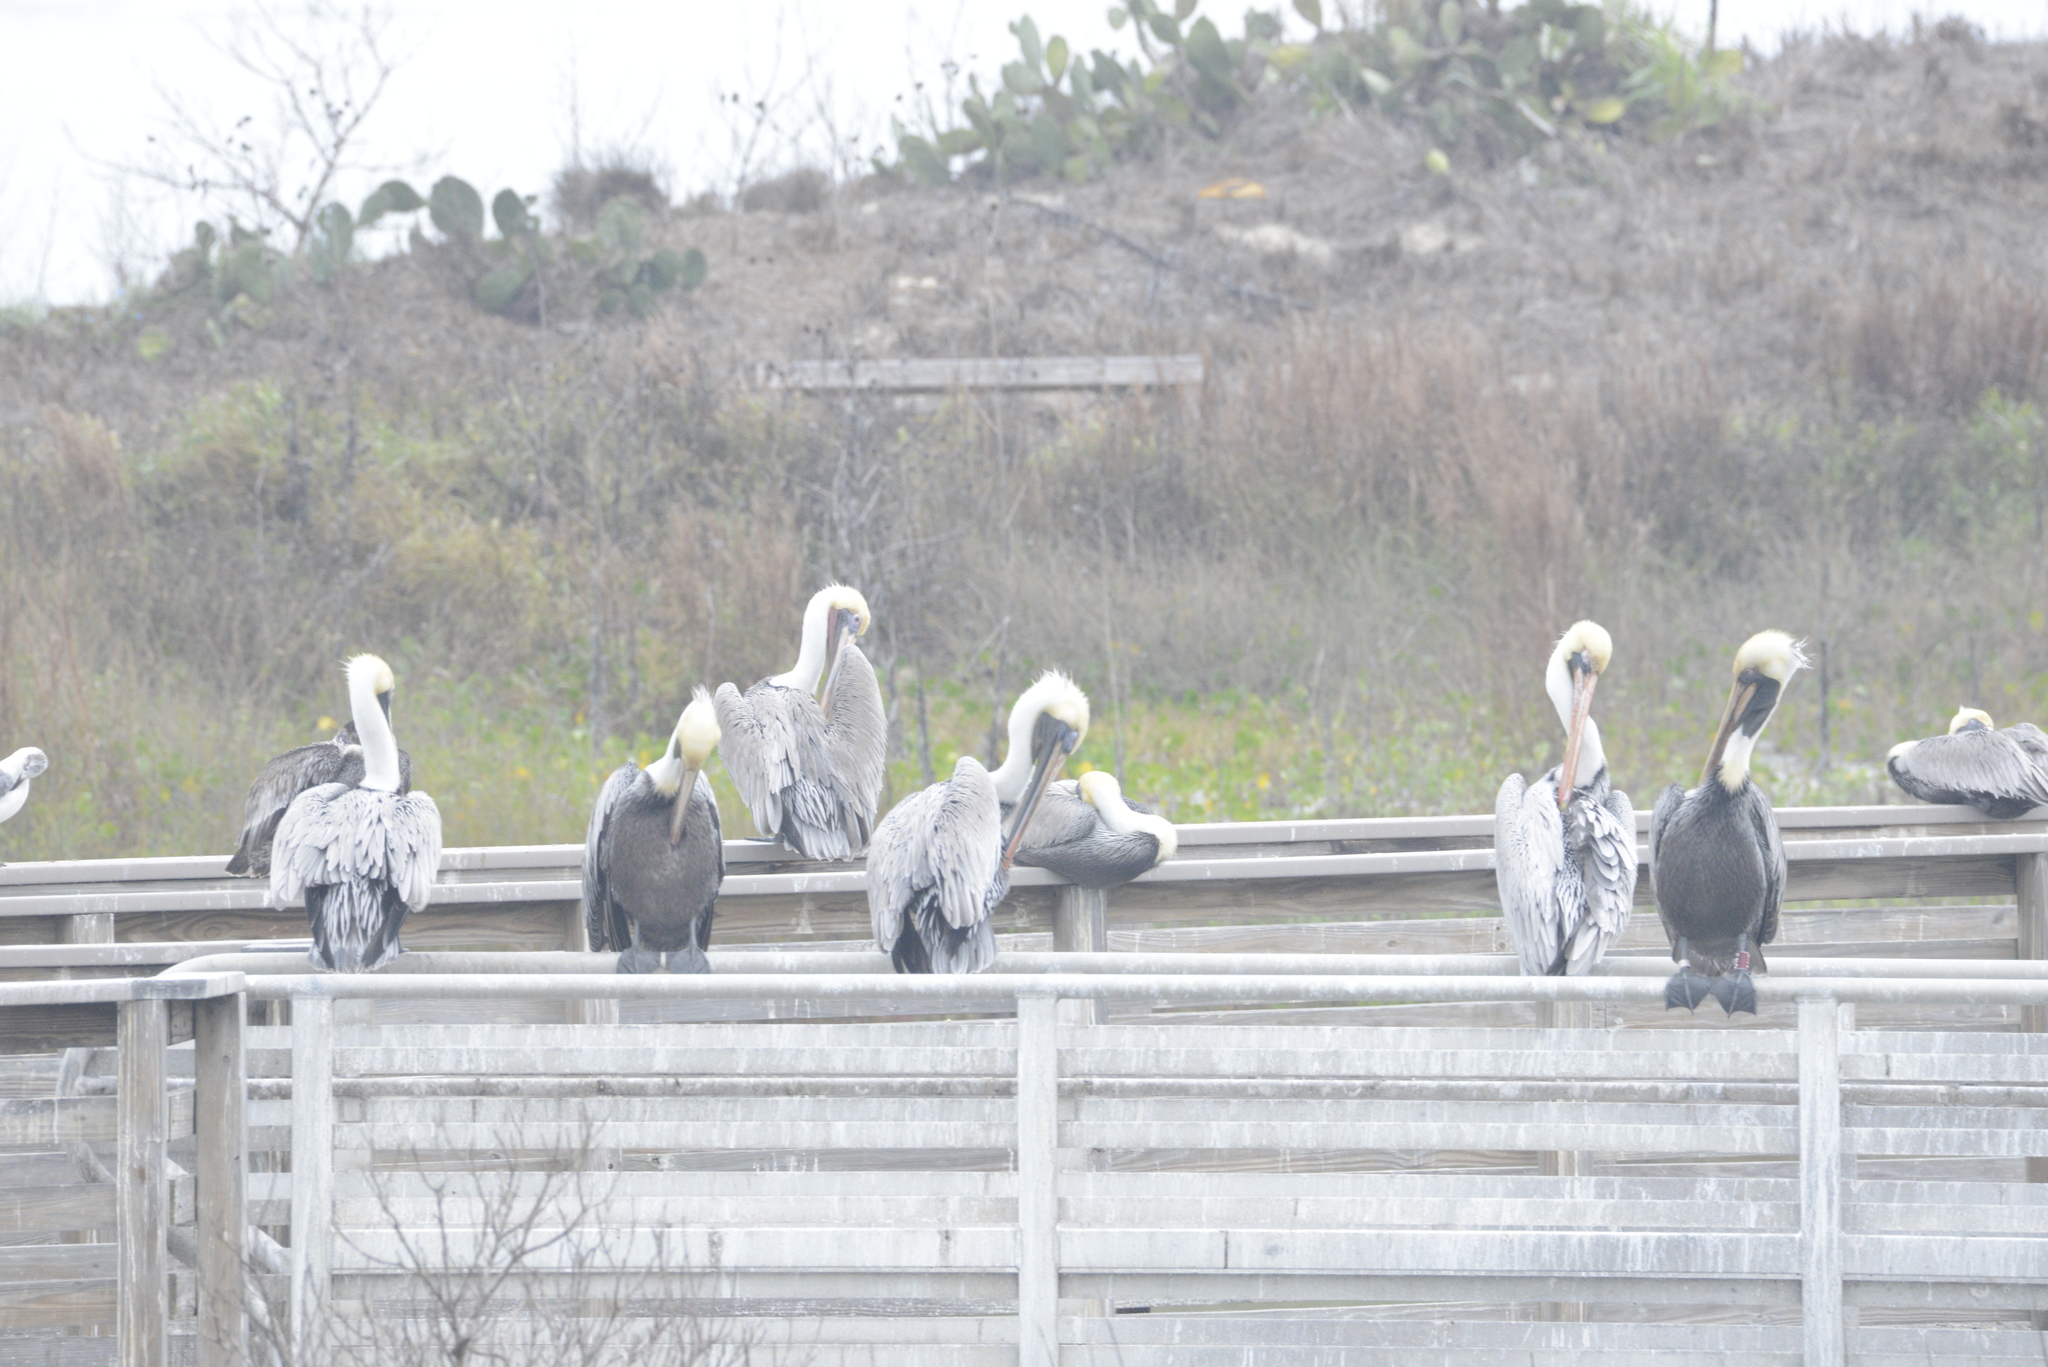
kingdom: Animalia
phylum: Chordata
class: Aves
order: Pelecaniformes
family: Pelecanidae
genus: Pelecanus
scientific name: Pelecanus occidentalis
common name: Brown pelican
